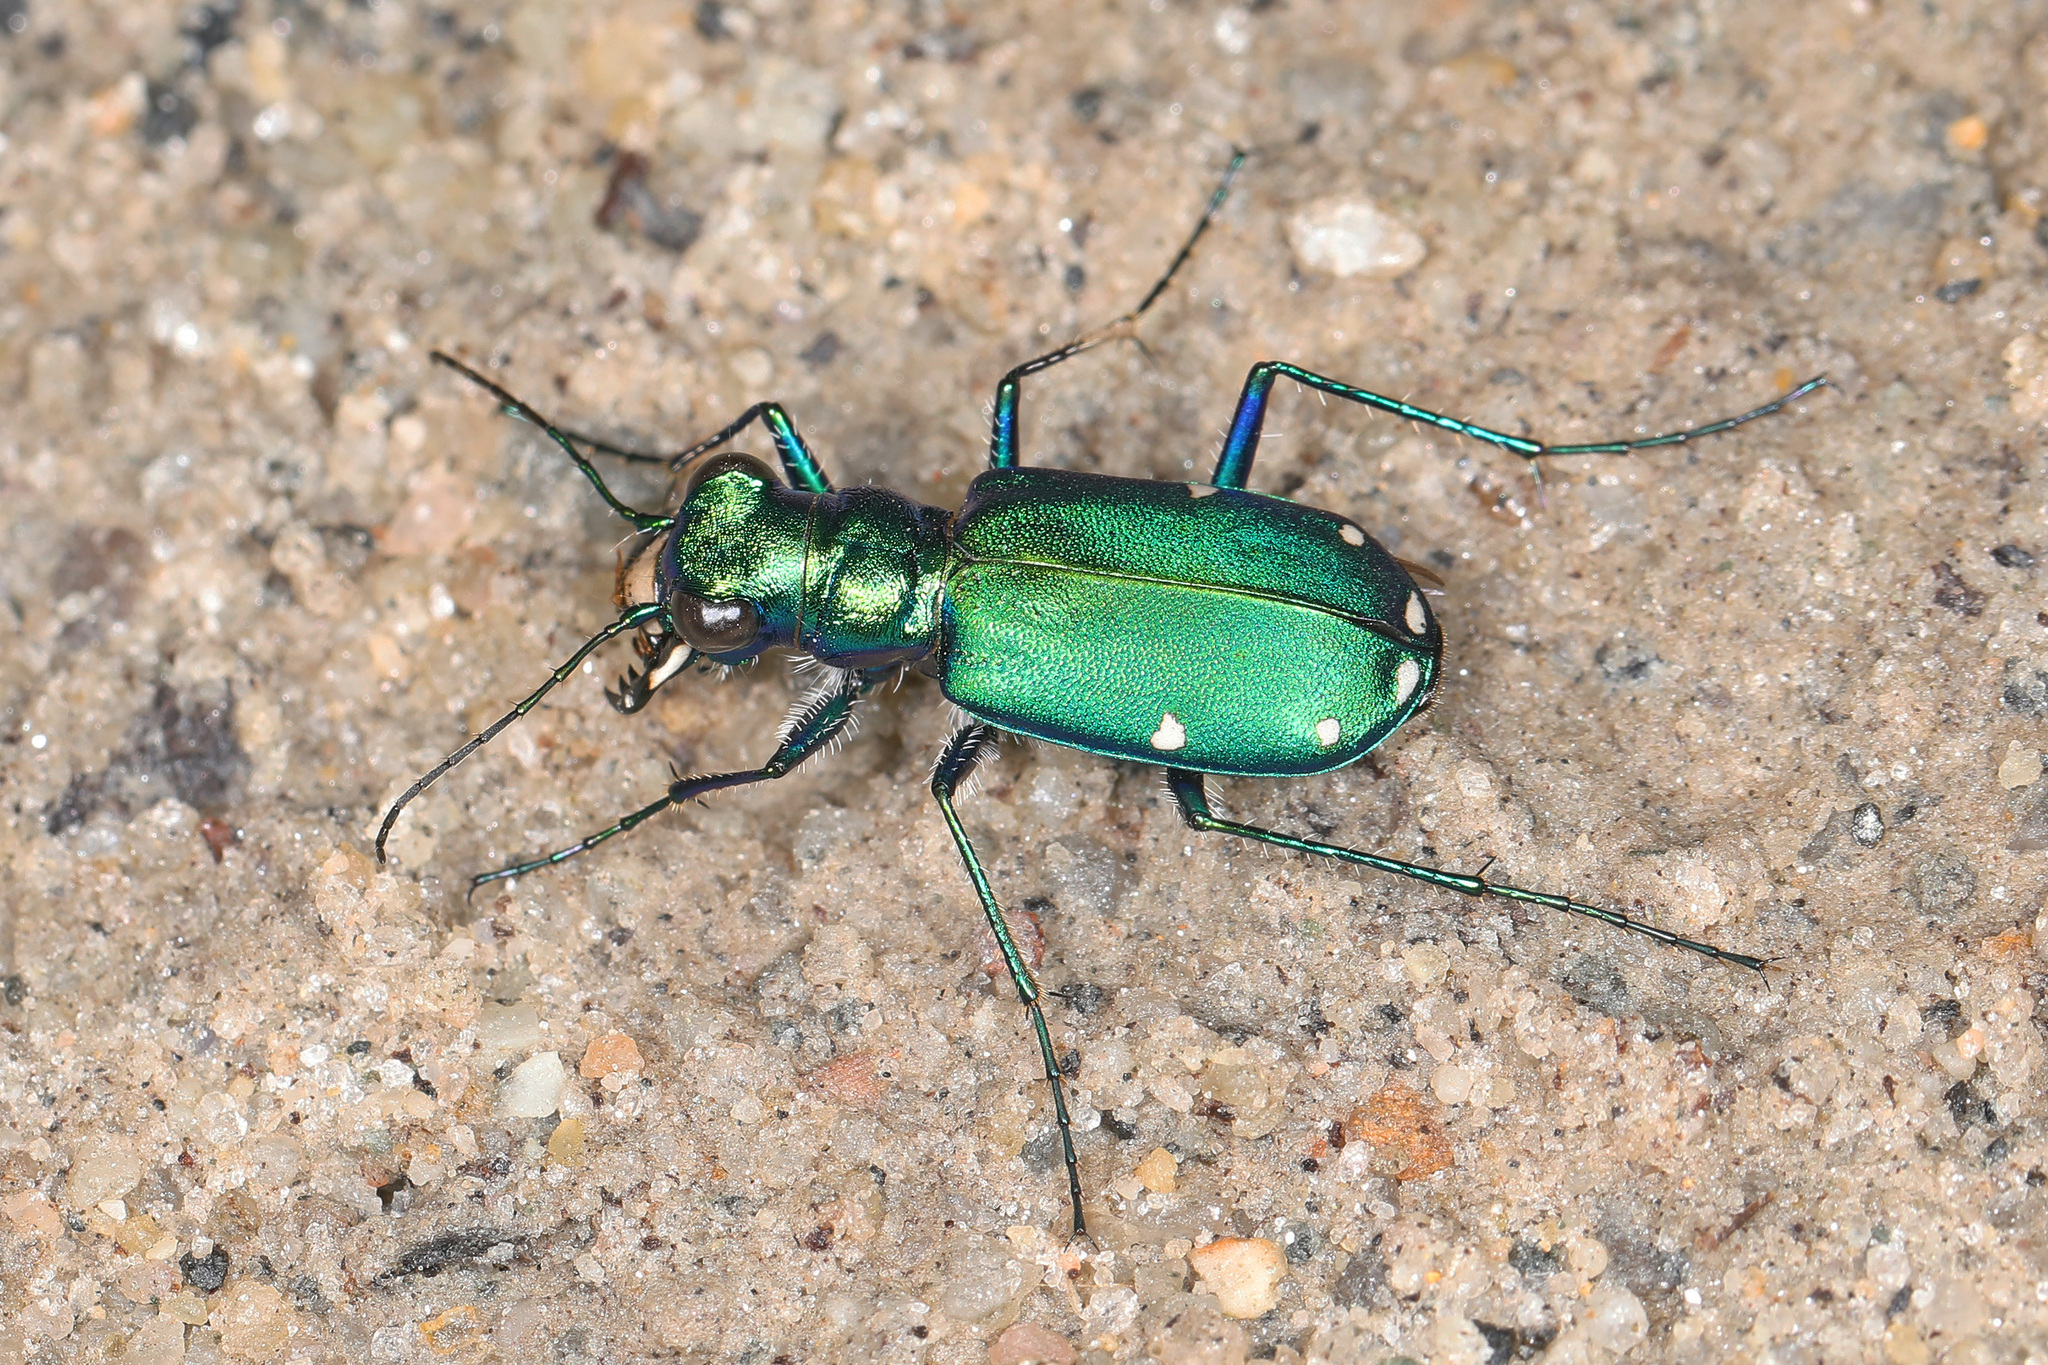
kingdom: Animalia
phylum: Arthropoda
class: Insecta
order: Coleoptera
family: Carabidae
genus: Cicindela
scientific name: Cicindela sexguttata
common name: Six-spotted tiger beetle
